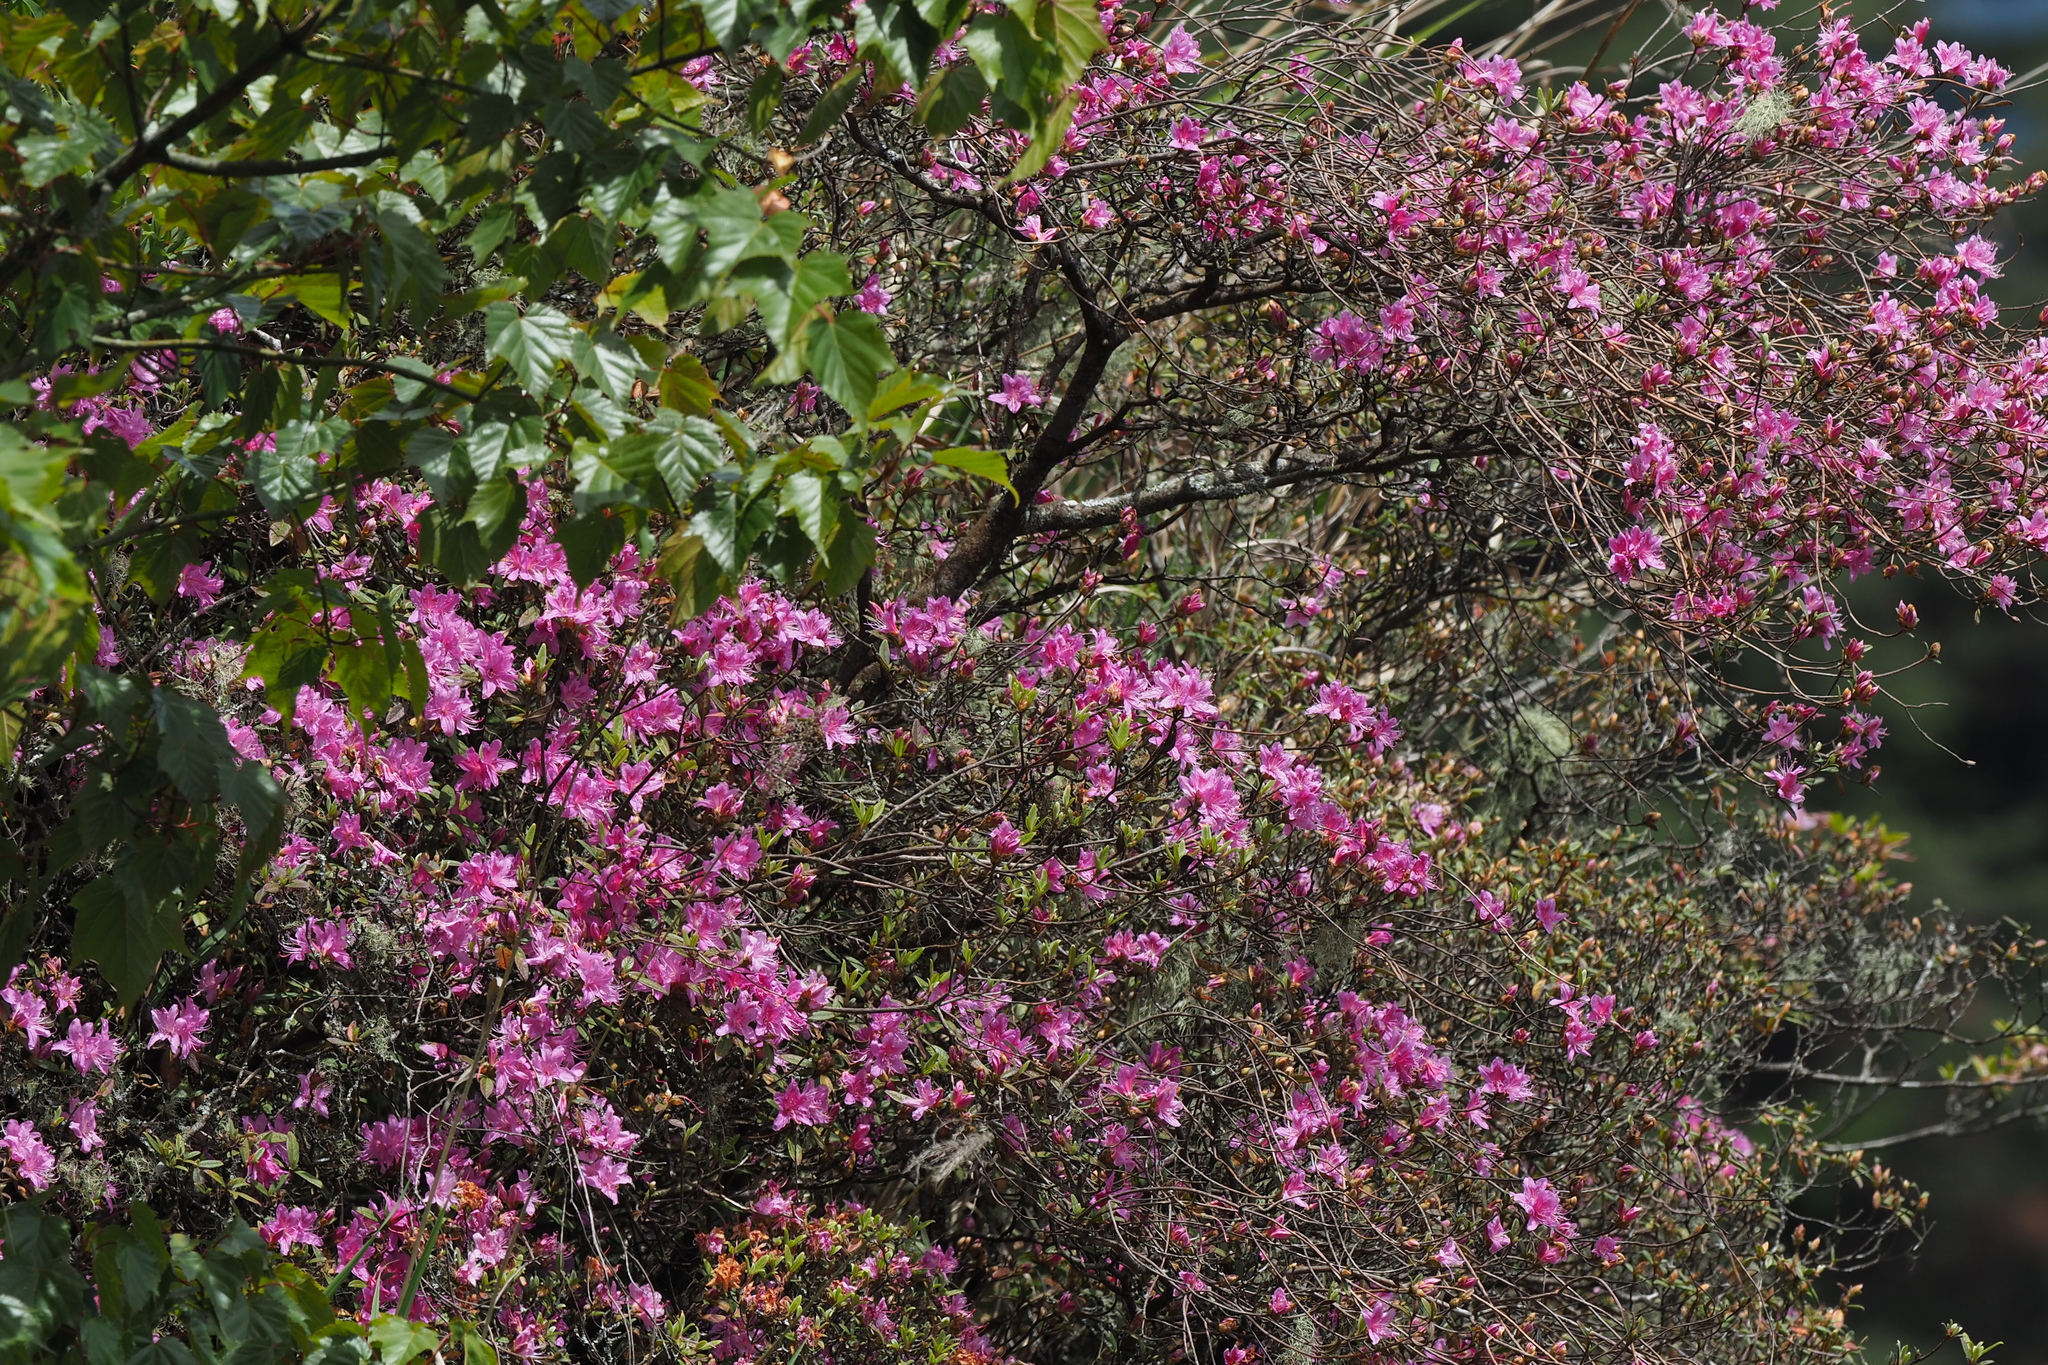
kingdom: Plantae
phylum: Tracheophyta
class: Magnoliopsida
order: Ericales
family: Ericaceae
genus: Rhododendron
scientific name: Rhododendron rubropilosum
